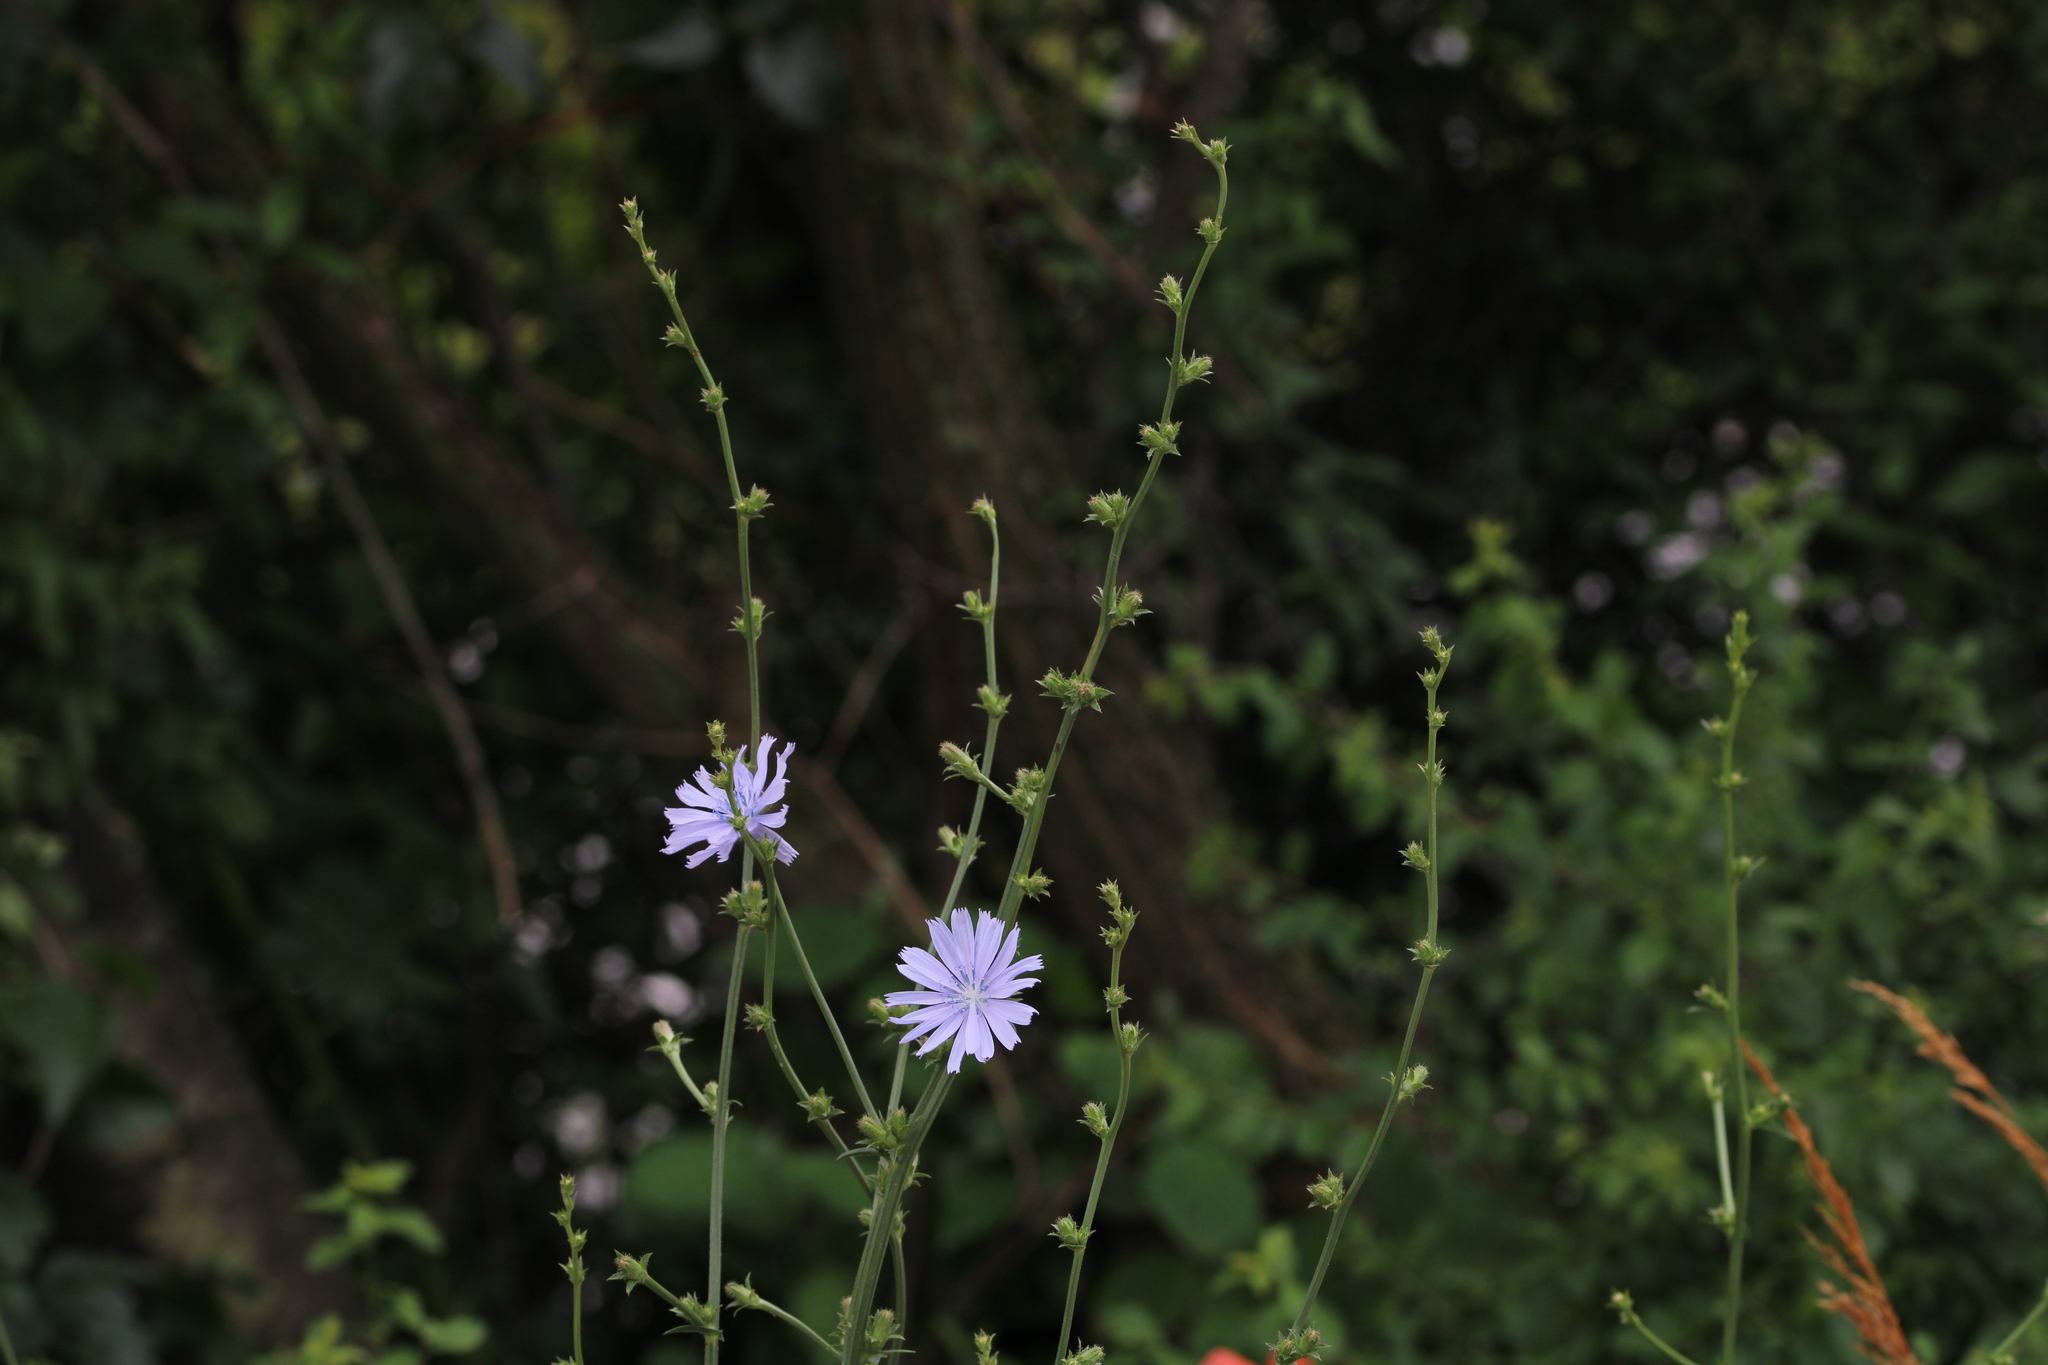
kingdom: Plantae
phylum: Tracheophyta
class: Magnoliopsida
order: Asterales
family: Asteraceae
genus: Cichorium
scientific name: Cichorium intybus
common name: Chicory
